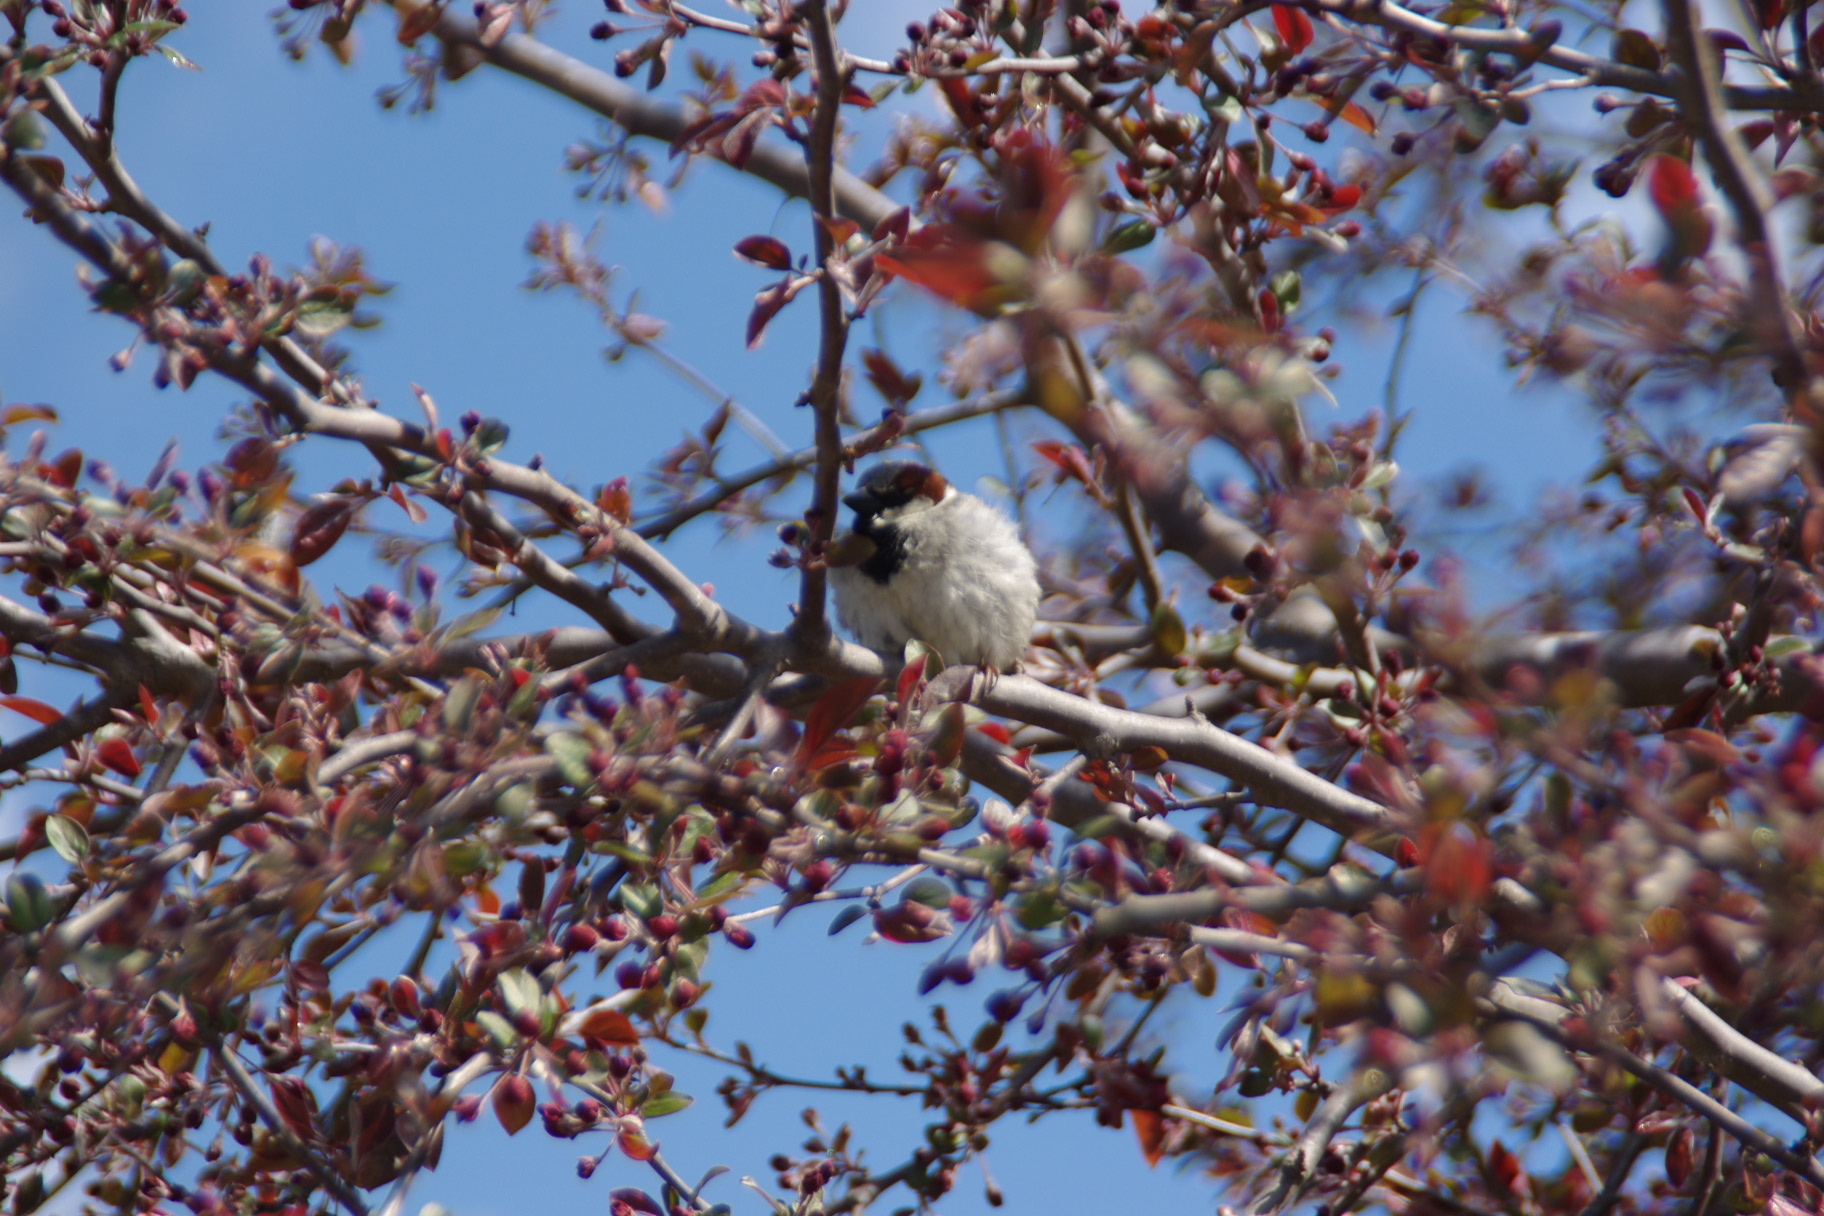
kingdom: Animalia
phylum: Chordata
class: Aves
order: Passeriformes
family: Passeridae
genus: Passer
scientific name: Passer domesticus
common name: House sparrow
